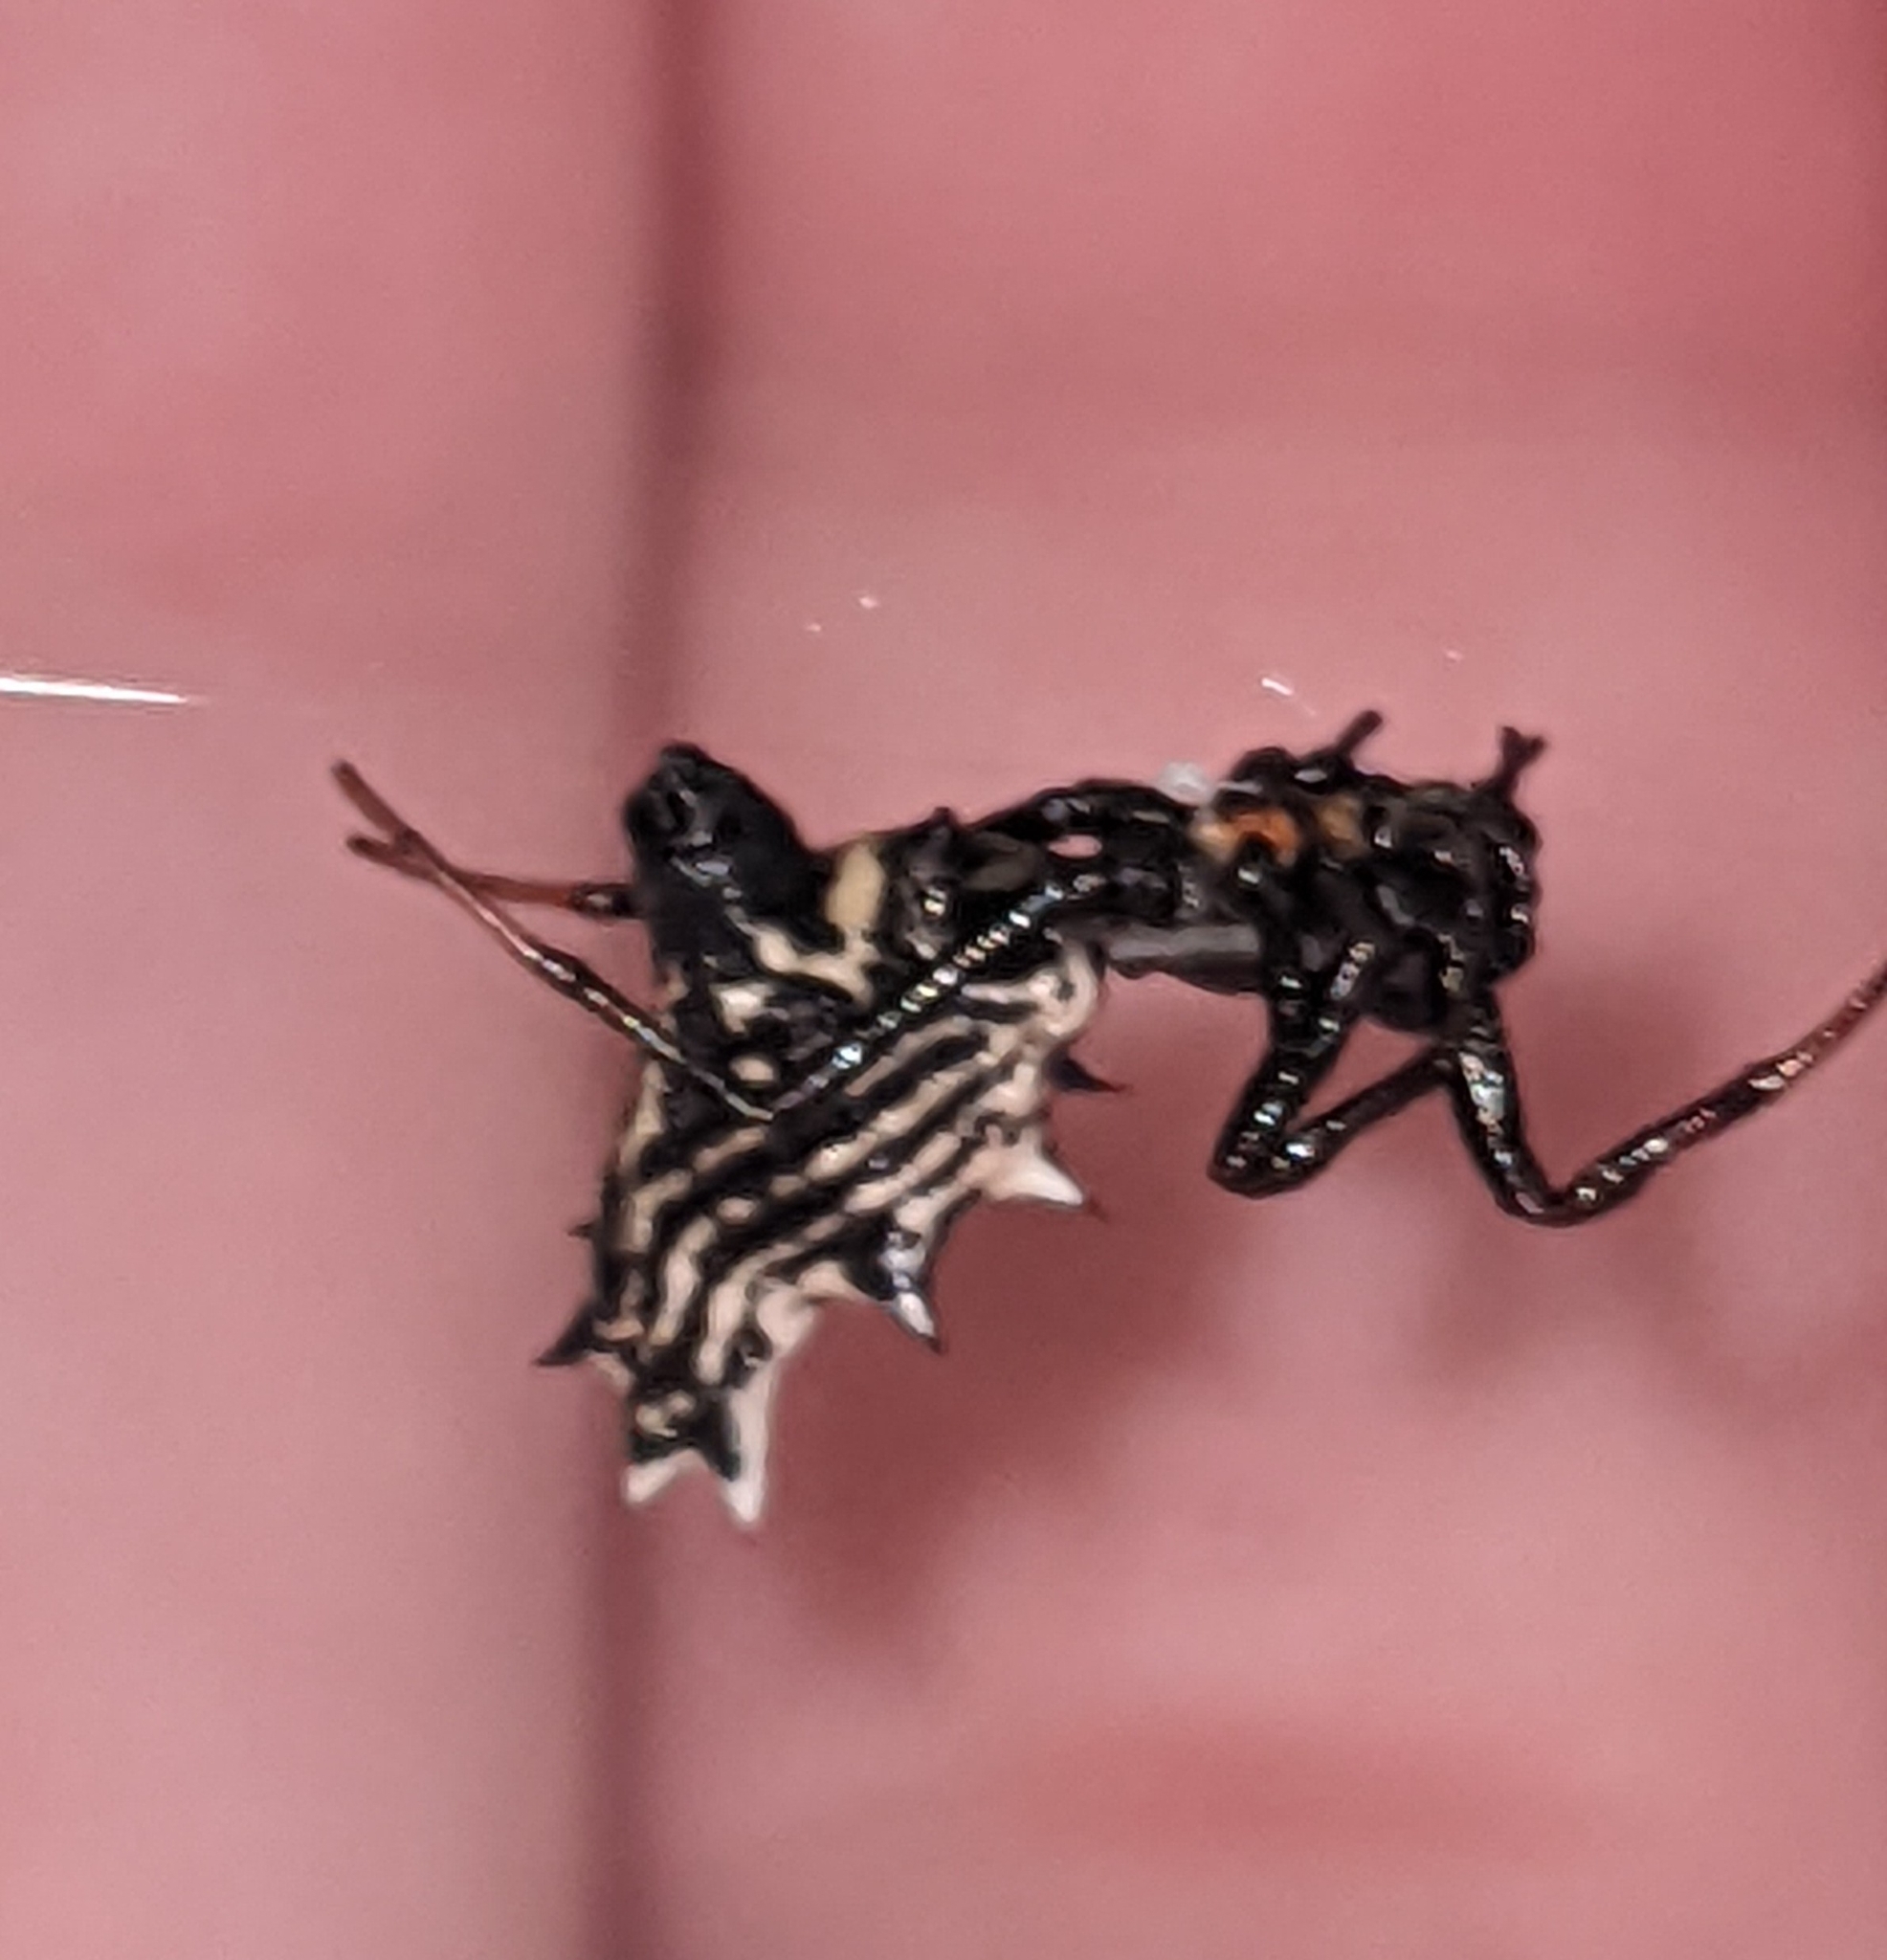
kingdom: Animalia
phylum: Arthropoda
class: Arachnida
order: Araneae
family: Araneidae
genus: Micrathena
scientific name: Micrathena gracilis
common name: Orb weavers
